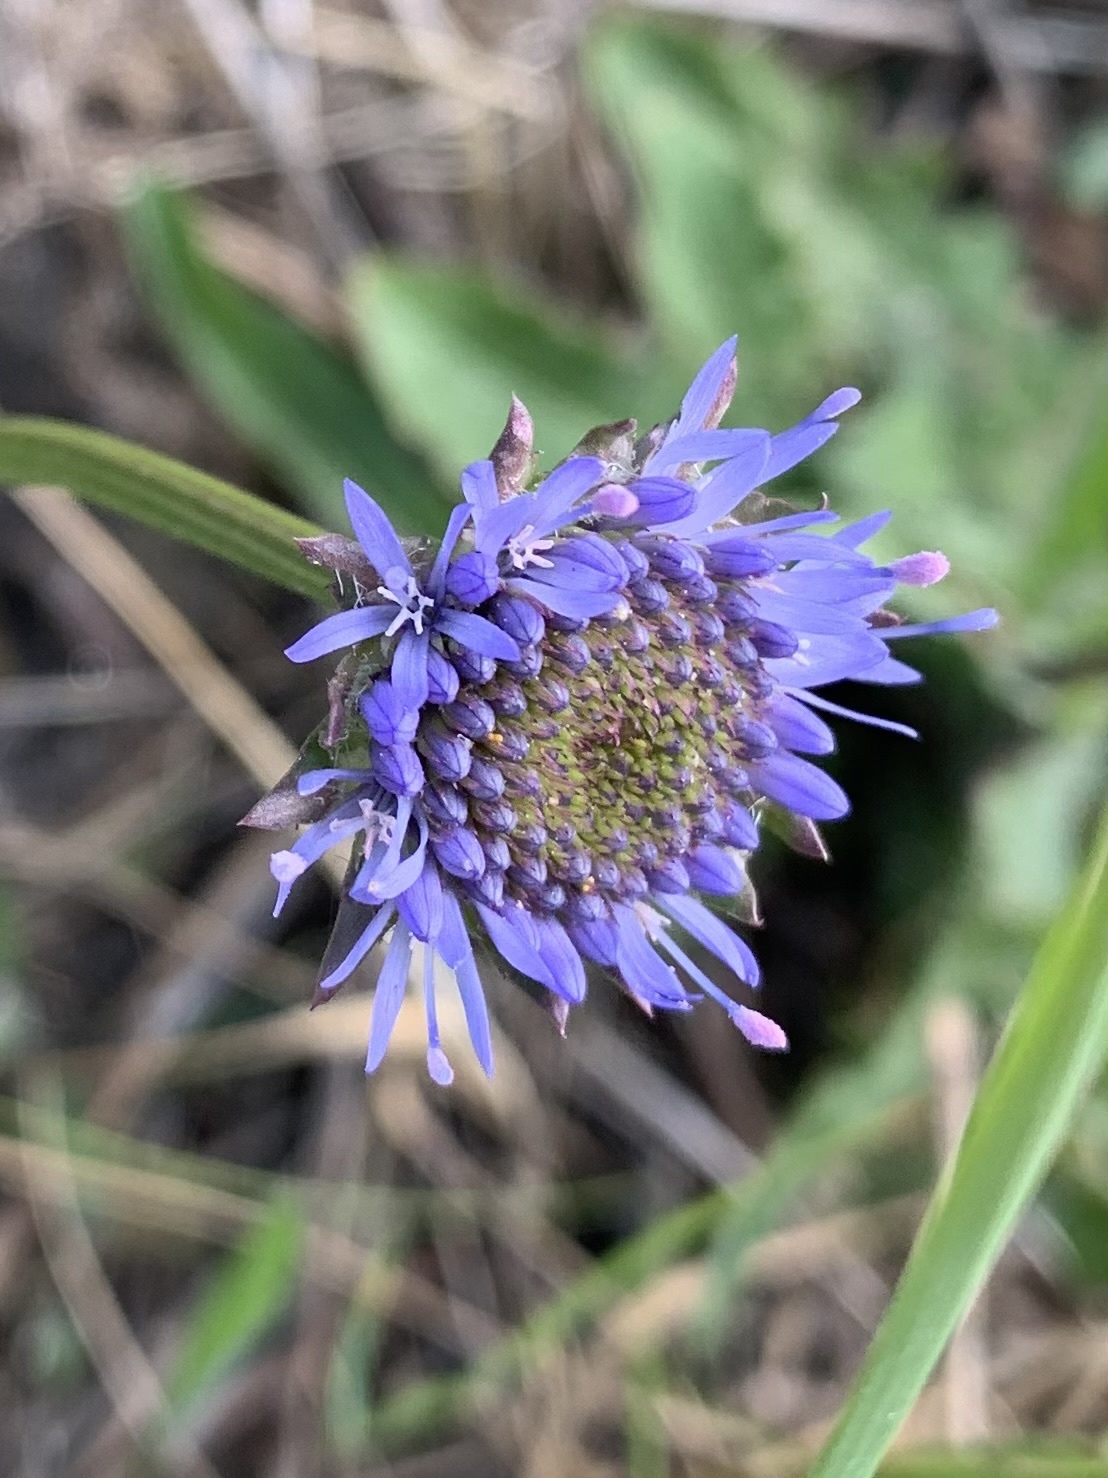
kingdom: Plantae
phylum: Tracheophyta
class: Magnoliopsida
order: Asterales
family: Campanulaceae
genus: Jasione
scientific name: Jasione montana
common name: Sheep's-bit
